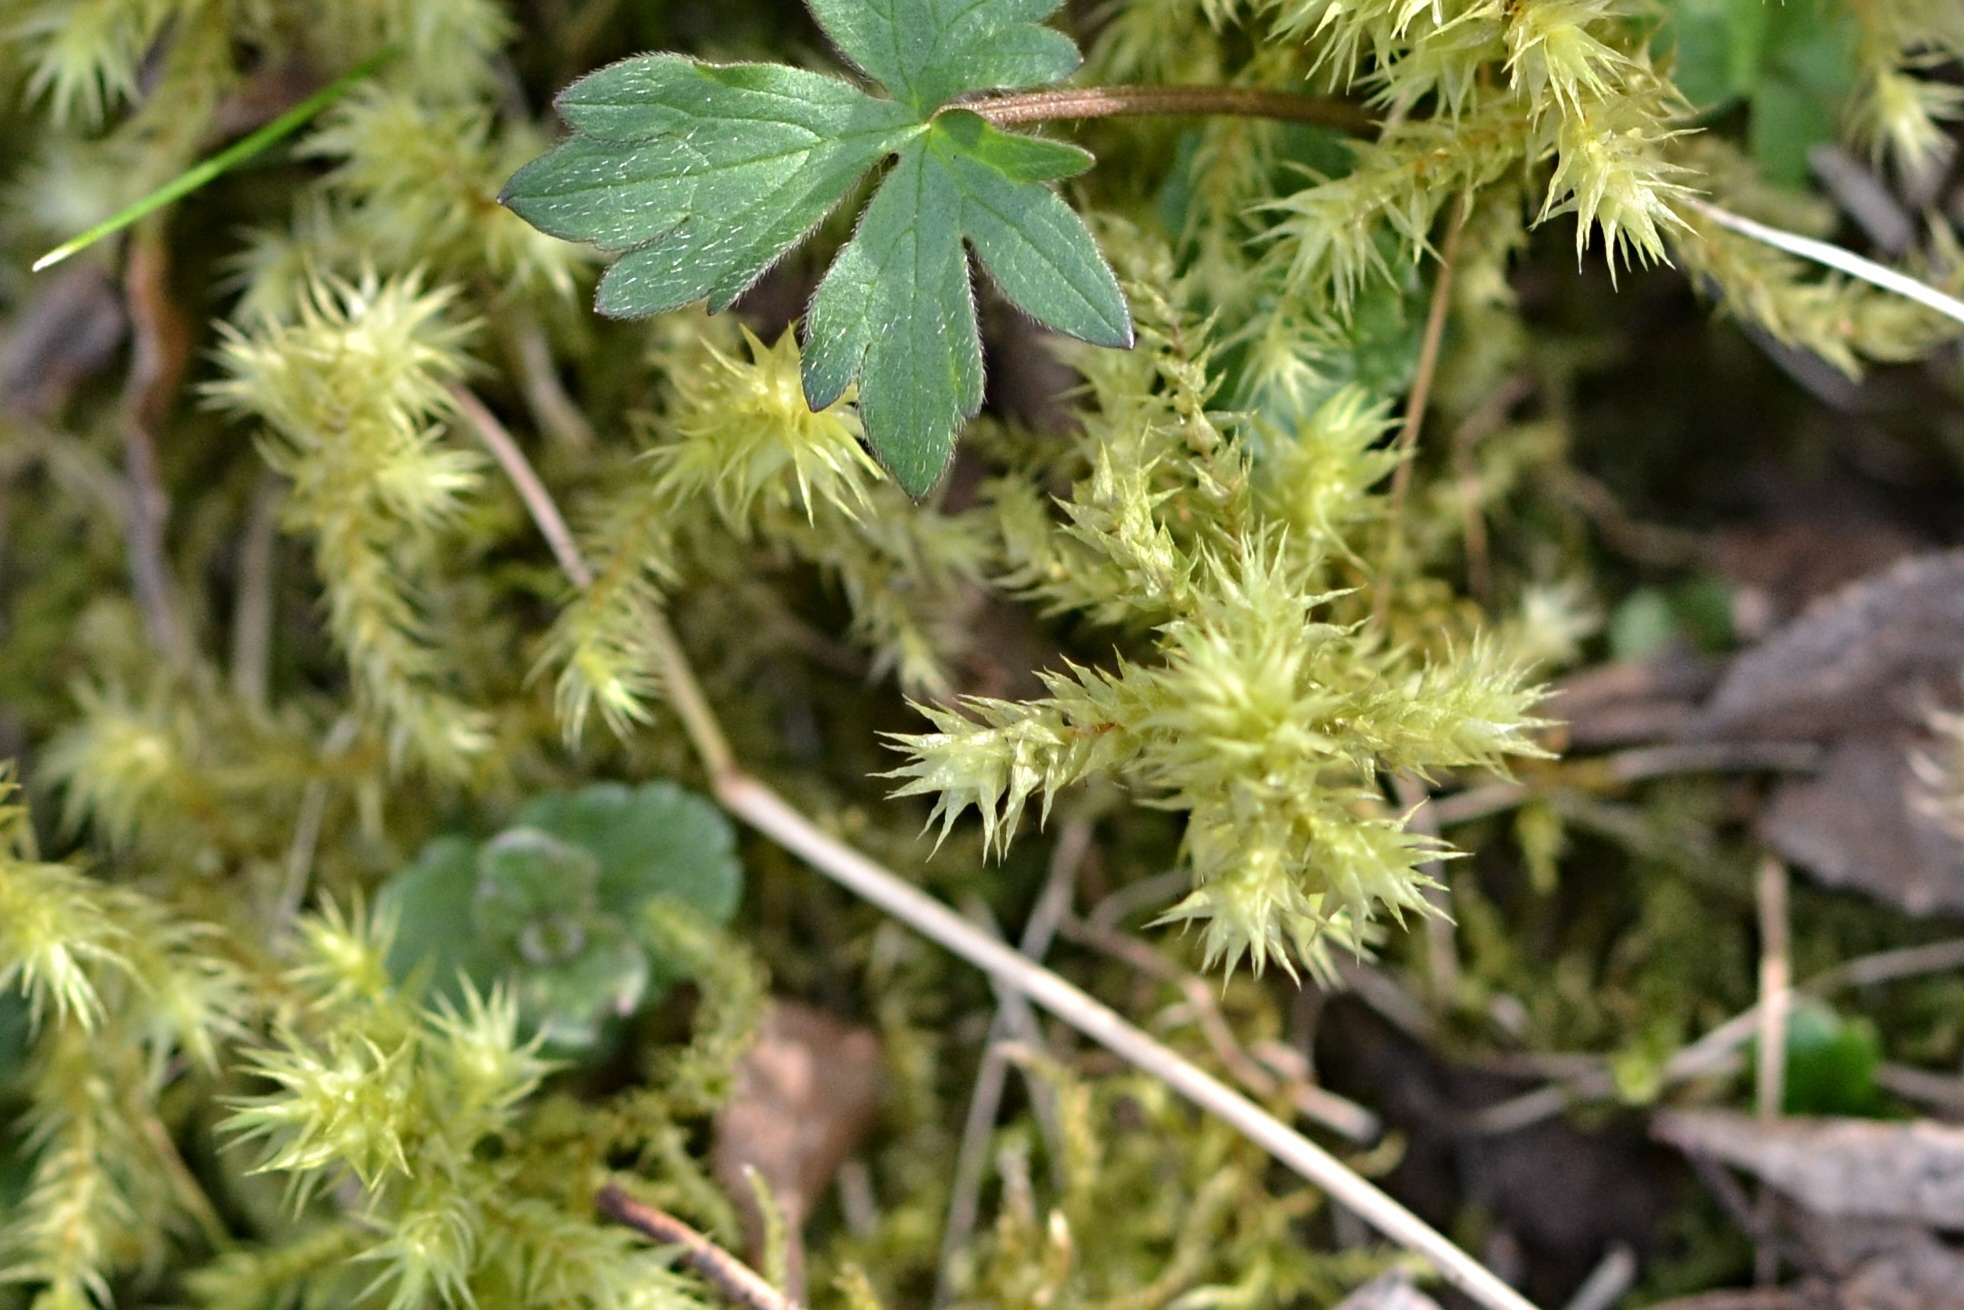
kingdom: Plantae
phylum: Bryophyta
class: Bryopsida
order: Hypnales
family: Hylocomiaceae
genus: Hylocomiadelphus
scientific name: Hylocomiadelphus triquetrus
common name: Rough goose neck moss
